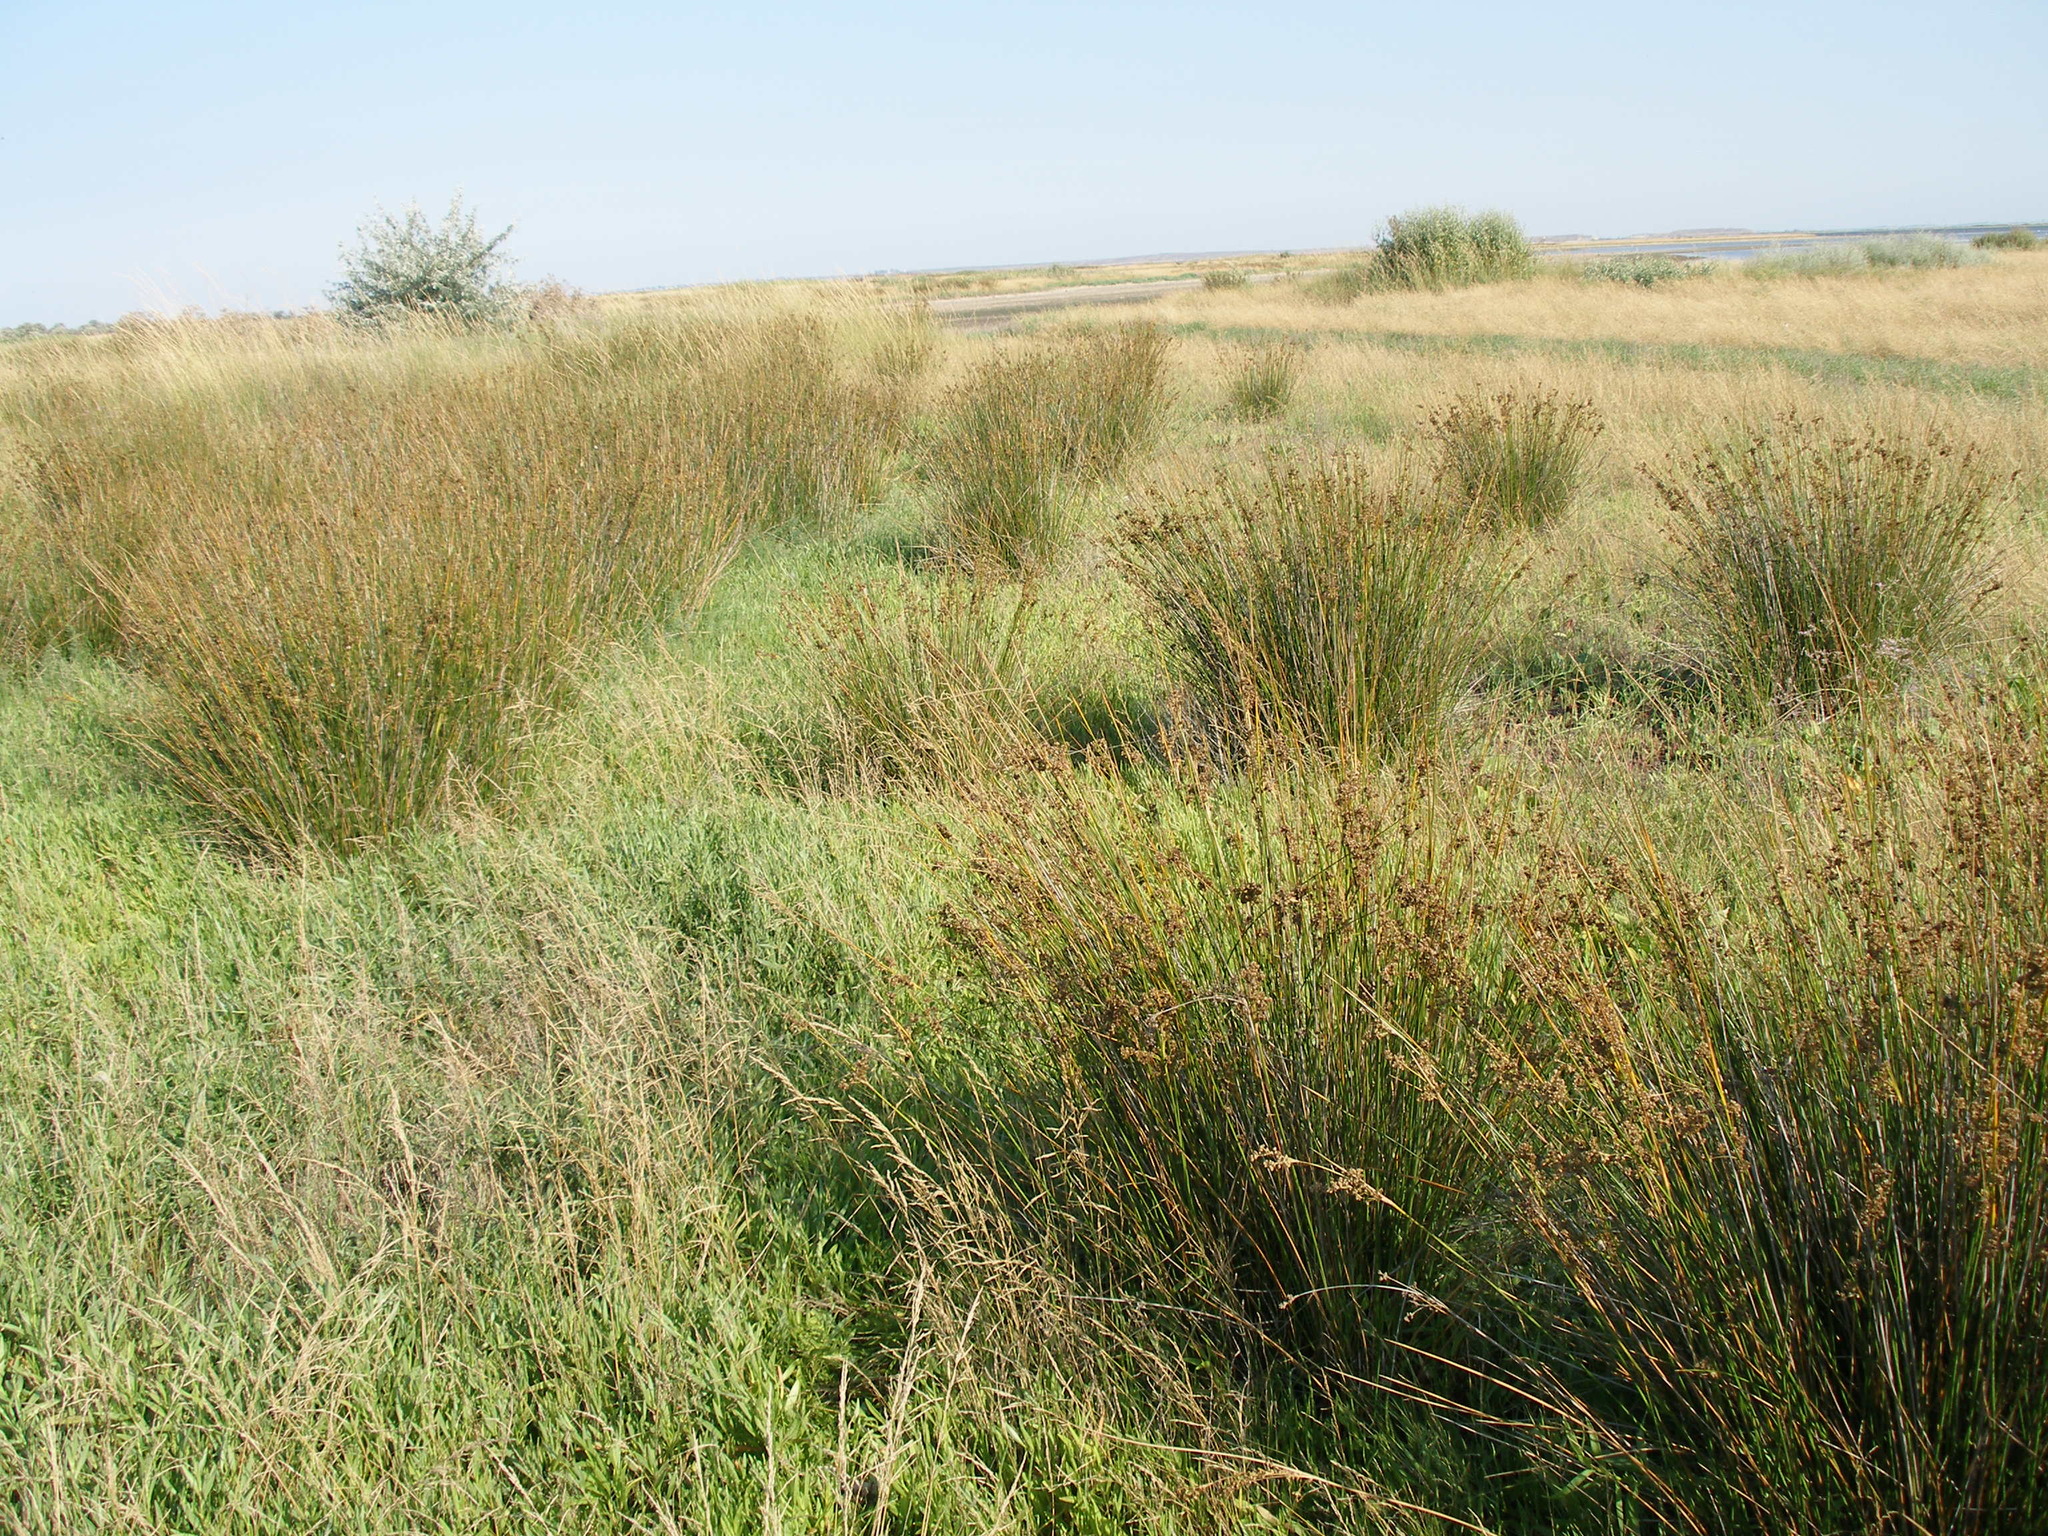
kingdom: Plantae
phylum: Tracheophyta
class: Liliopsida
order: Poales
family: Juncaceae
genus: Juncus
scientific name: Juncus maritimus
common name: Sea rush
